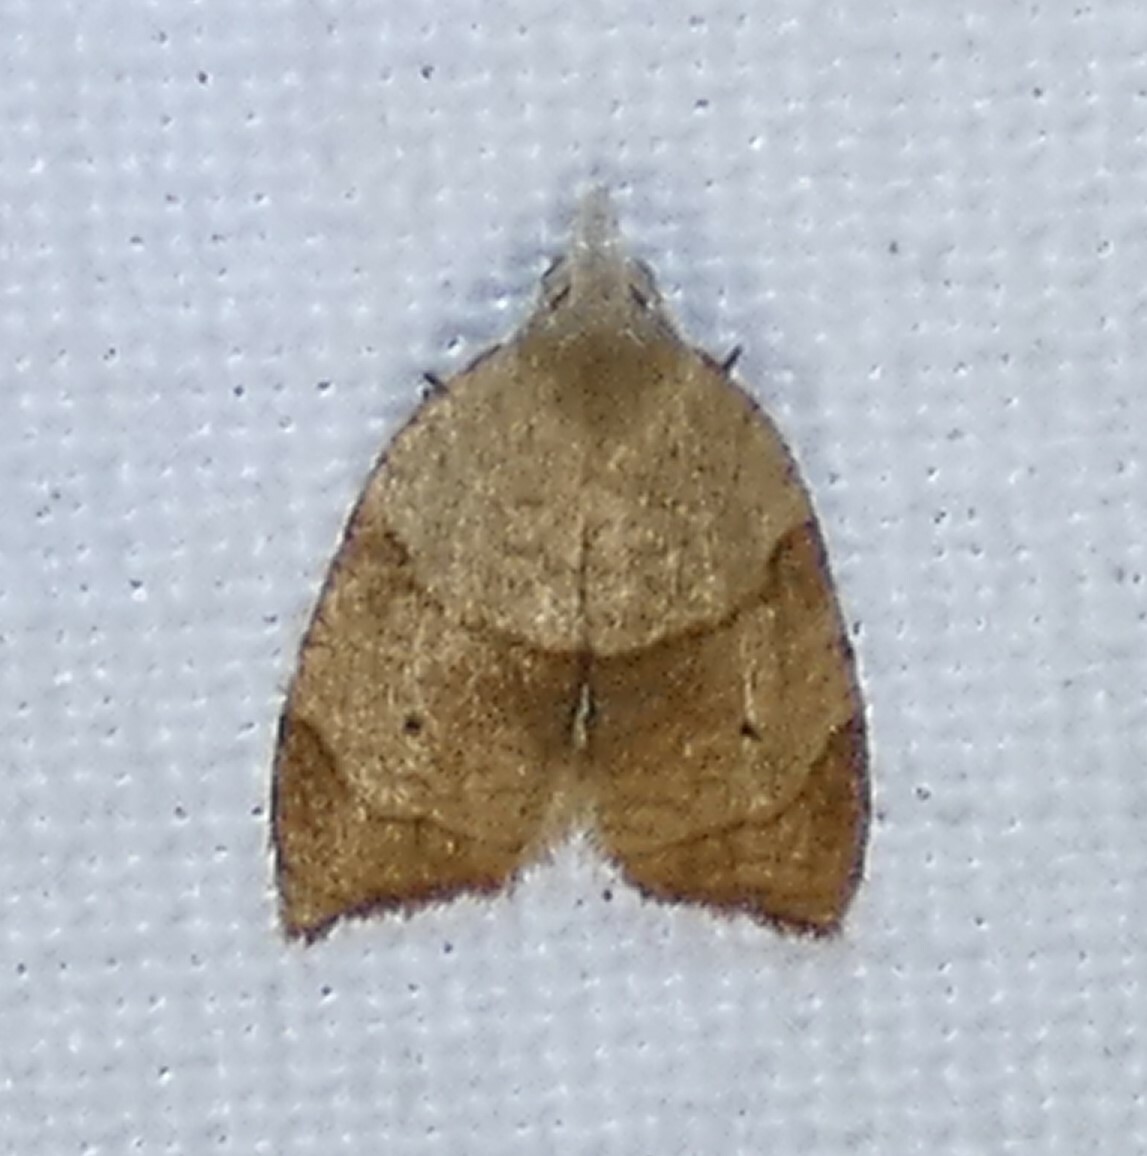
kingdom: Animalia
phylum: Arthropoda
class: Insecta
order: Lepidoptera
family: Tortricidae
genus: Coelostathma
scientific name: Coelostathma discopunctana
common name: Batman moth
